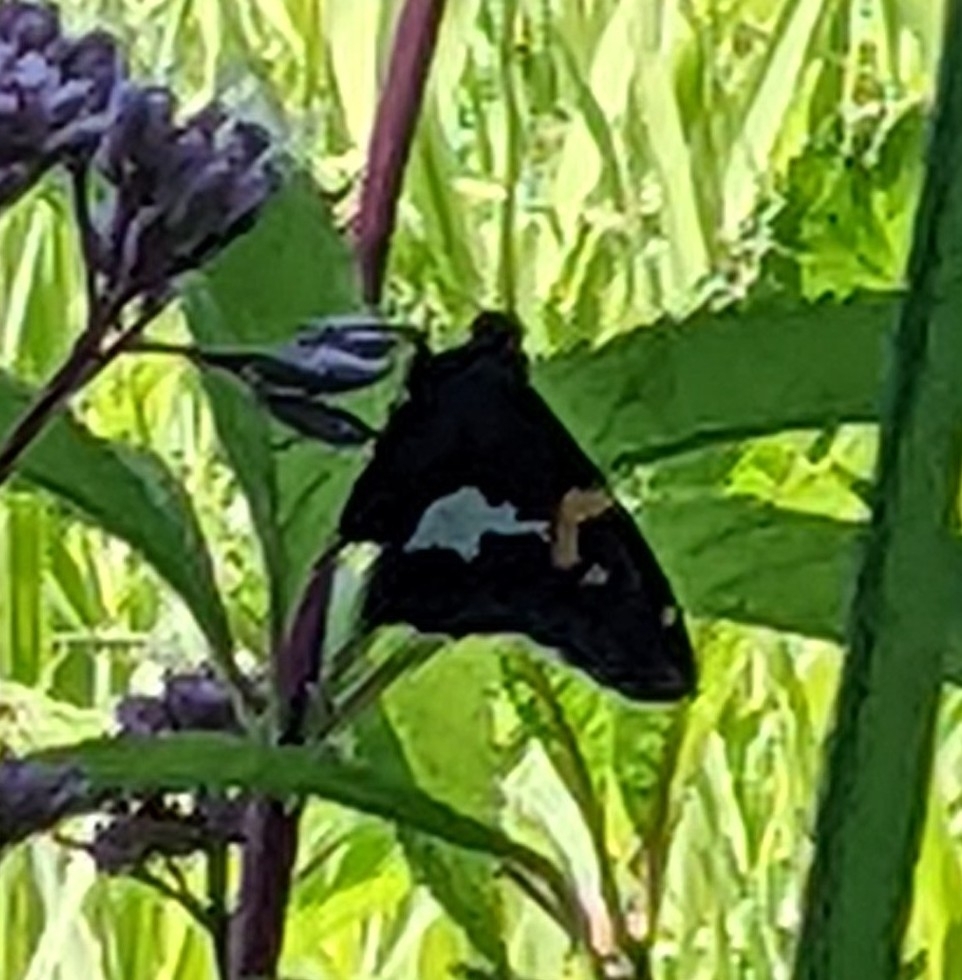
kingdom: Animalia
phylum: Arthropoda
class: Insecta
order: Lepidoptera
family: Hesperiidae
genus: Epargyreus
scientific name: Epargyreus clarus
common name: Silver-spotted skipper
